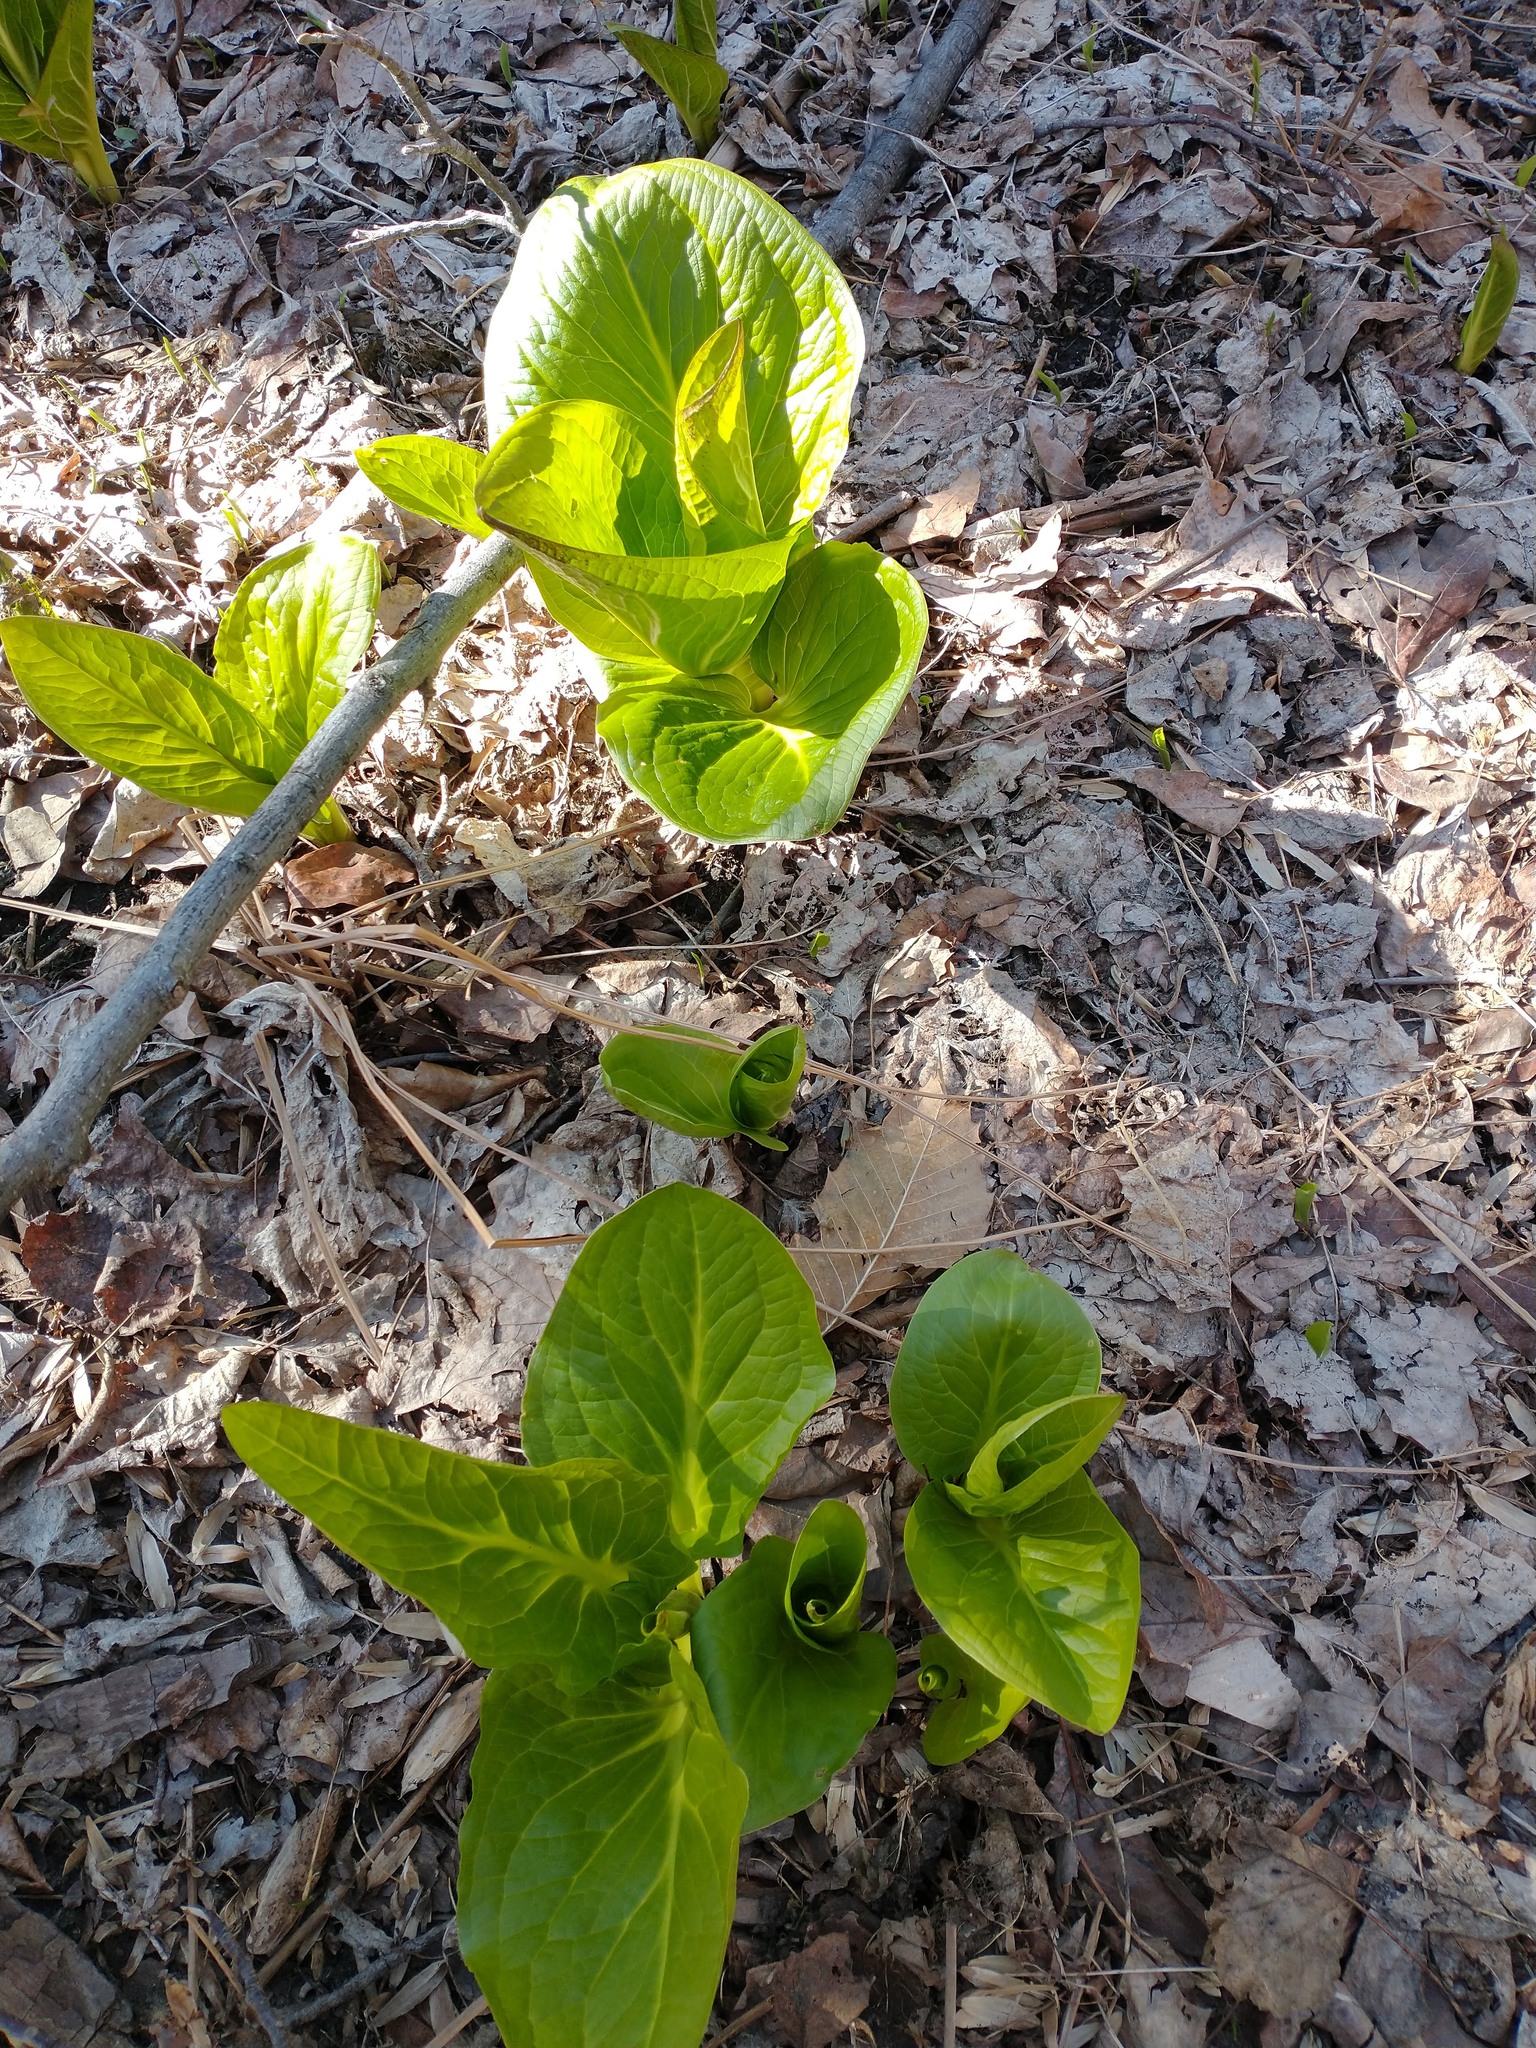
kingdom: Plantae
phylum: Tracheophyta
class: Liliopsida
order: Alismatales
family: Araceae
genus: Symplocarpus
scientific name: Symplocarpus foetidus
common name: Eastern skunk cabbage
